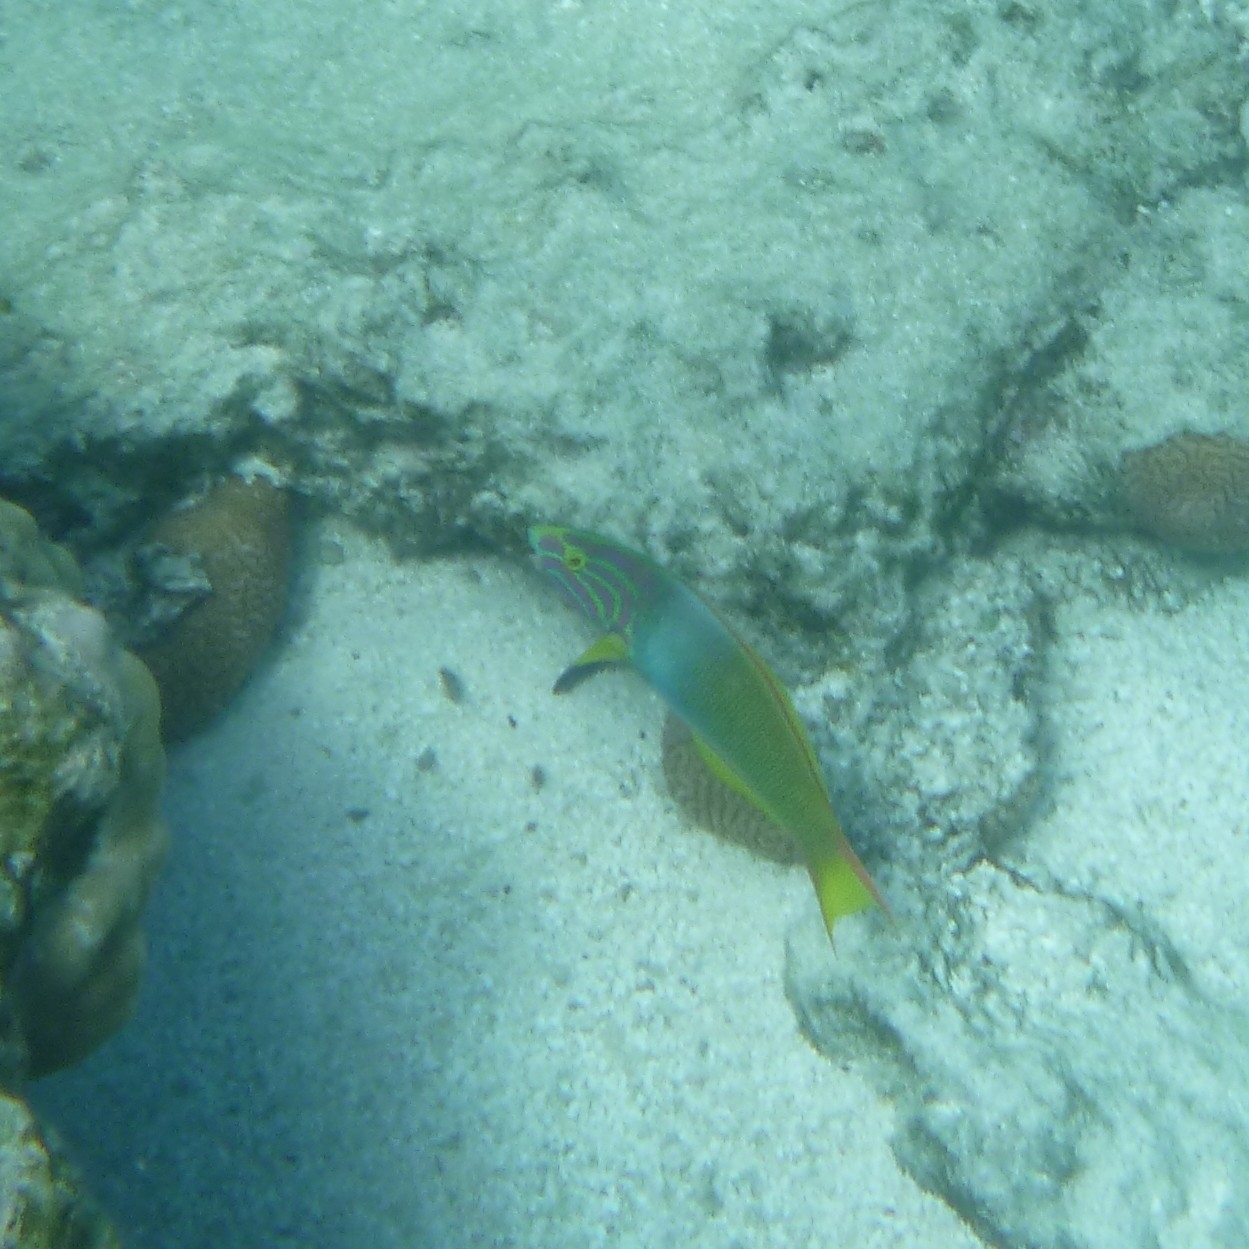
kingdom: Animalia
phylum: Chordata
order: Perciformes
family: Labridae
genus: Thalassoma
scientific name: Thalassoma lutescens
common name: Green moon wrasse
